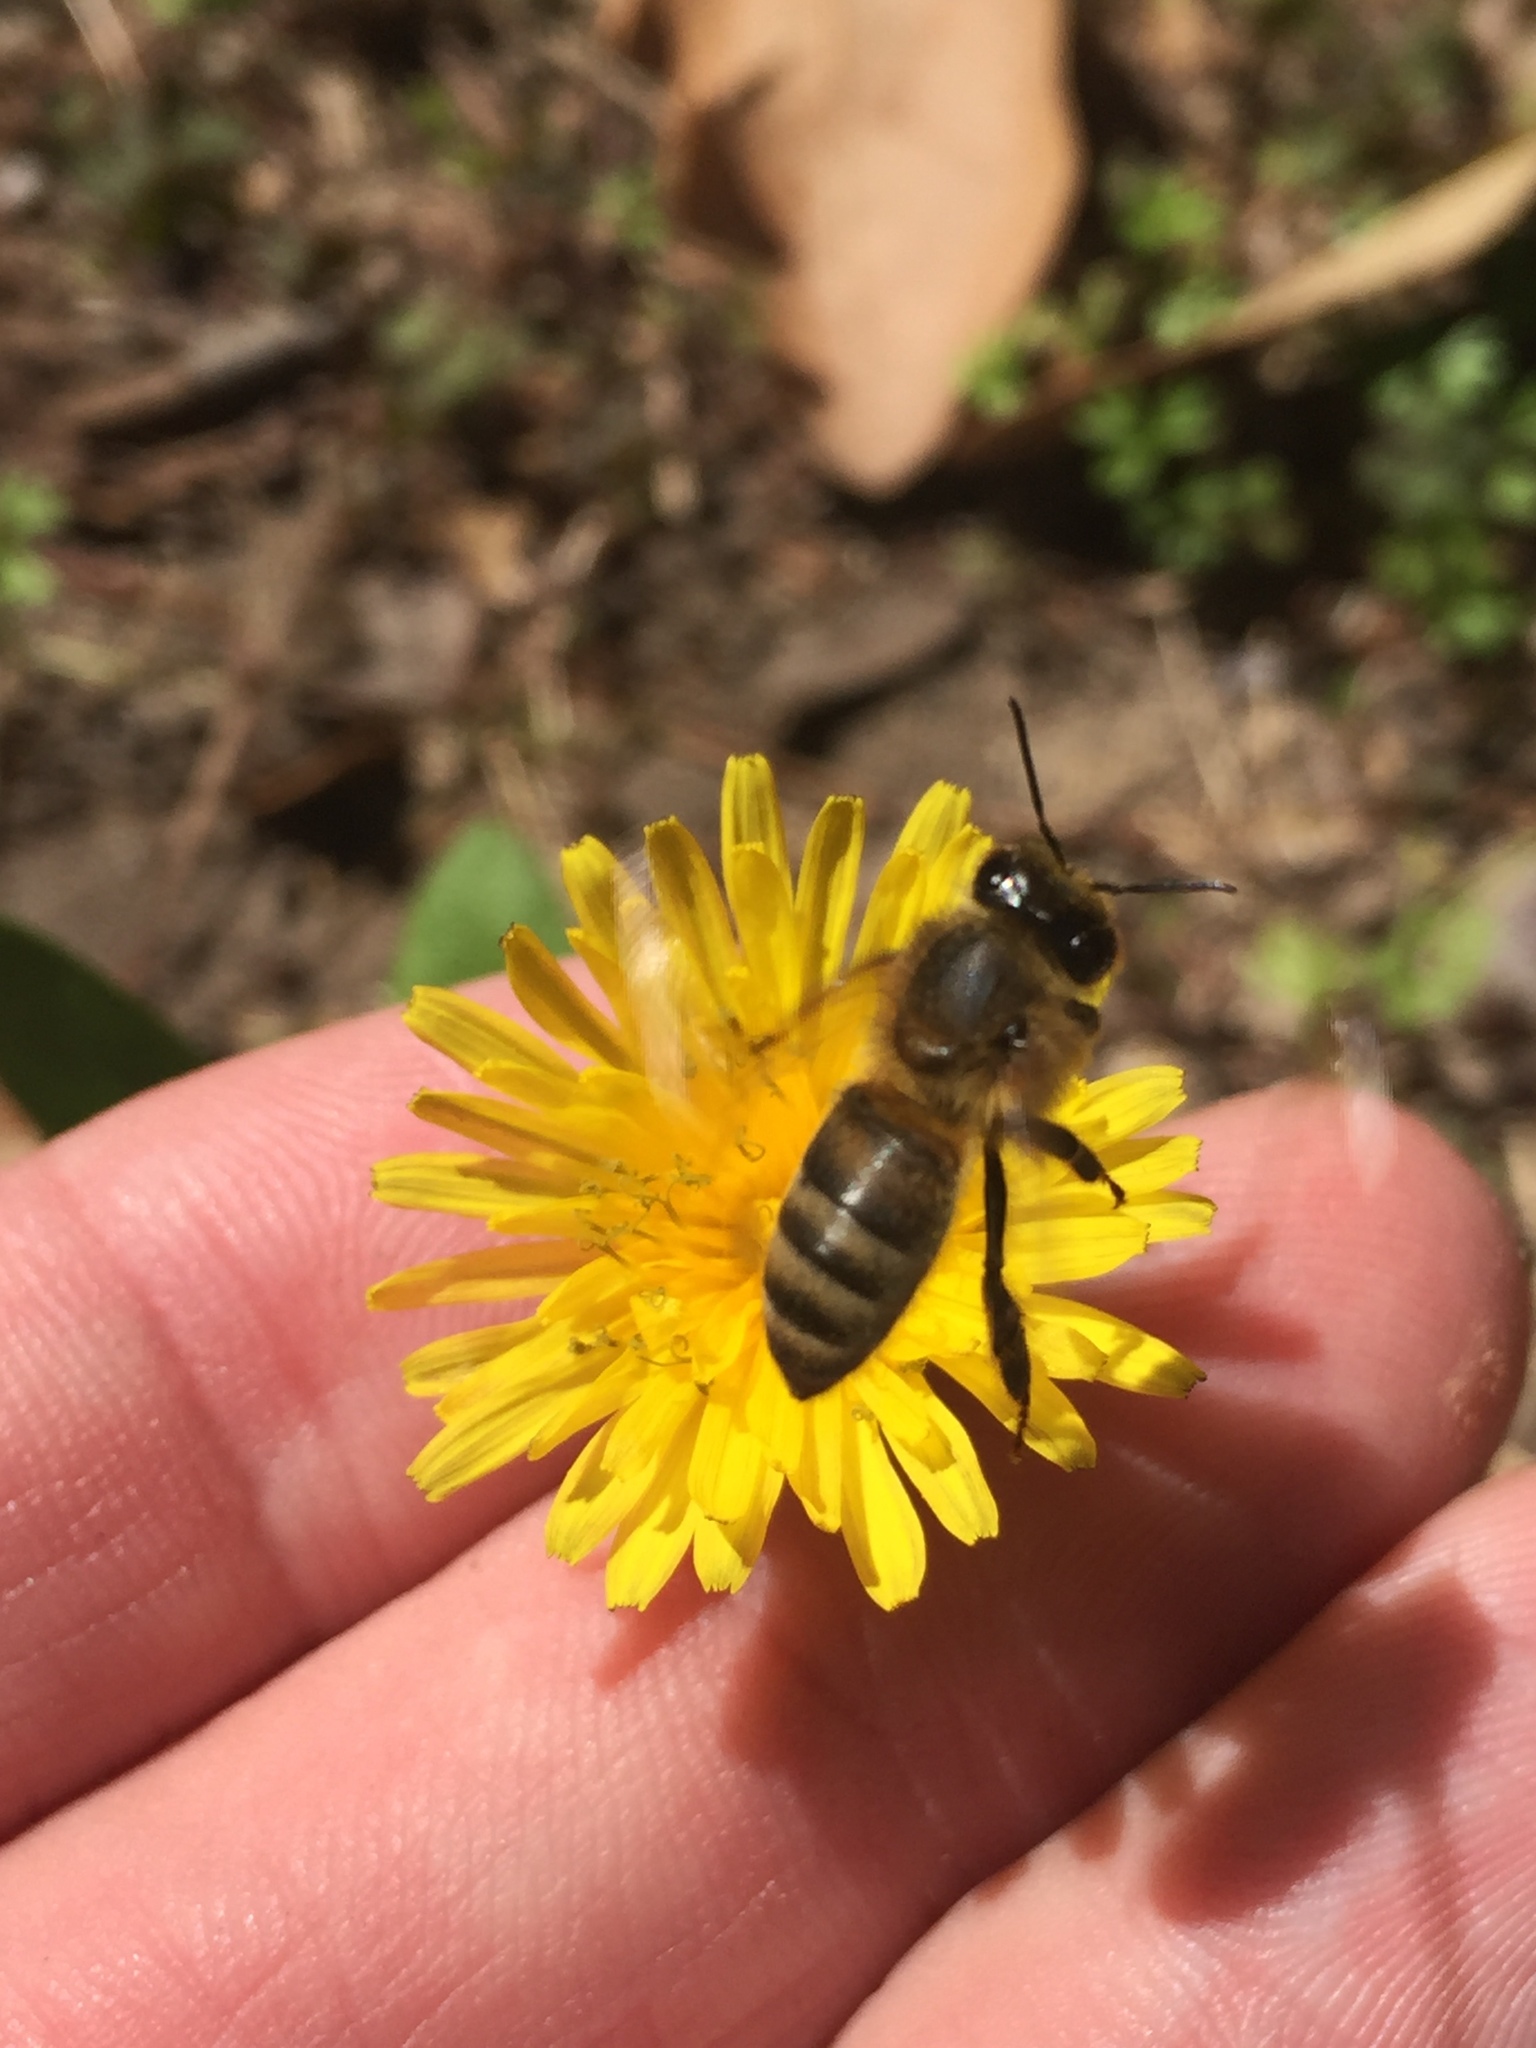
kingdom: Animalia
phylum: Arthropoda
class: Insecta
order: Hymenoptera
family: Apidae
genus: Apis
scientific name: Apis mellifera
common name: Honey bee
